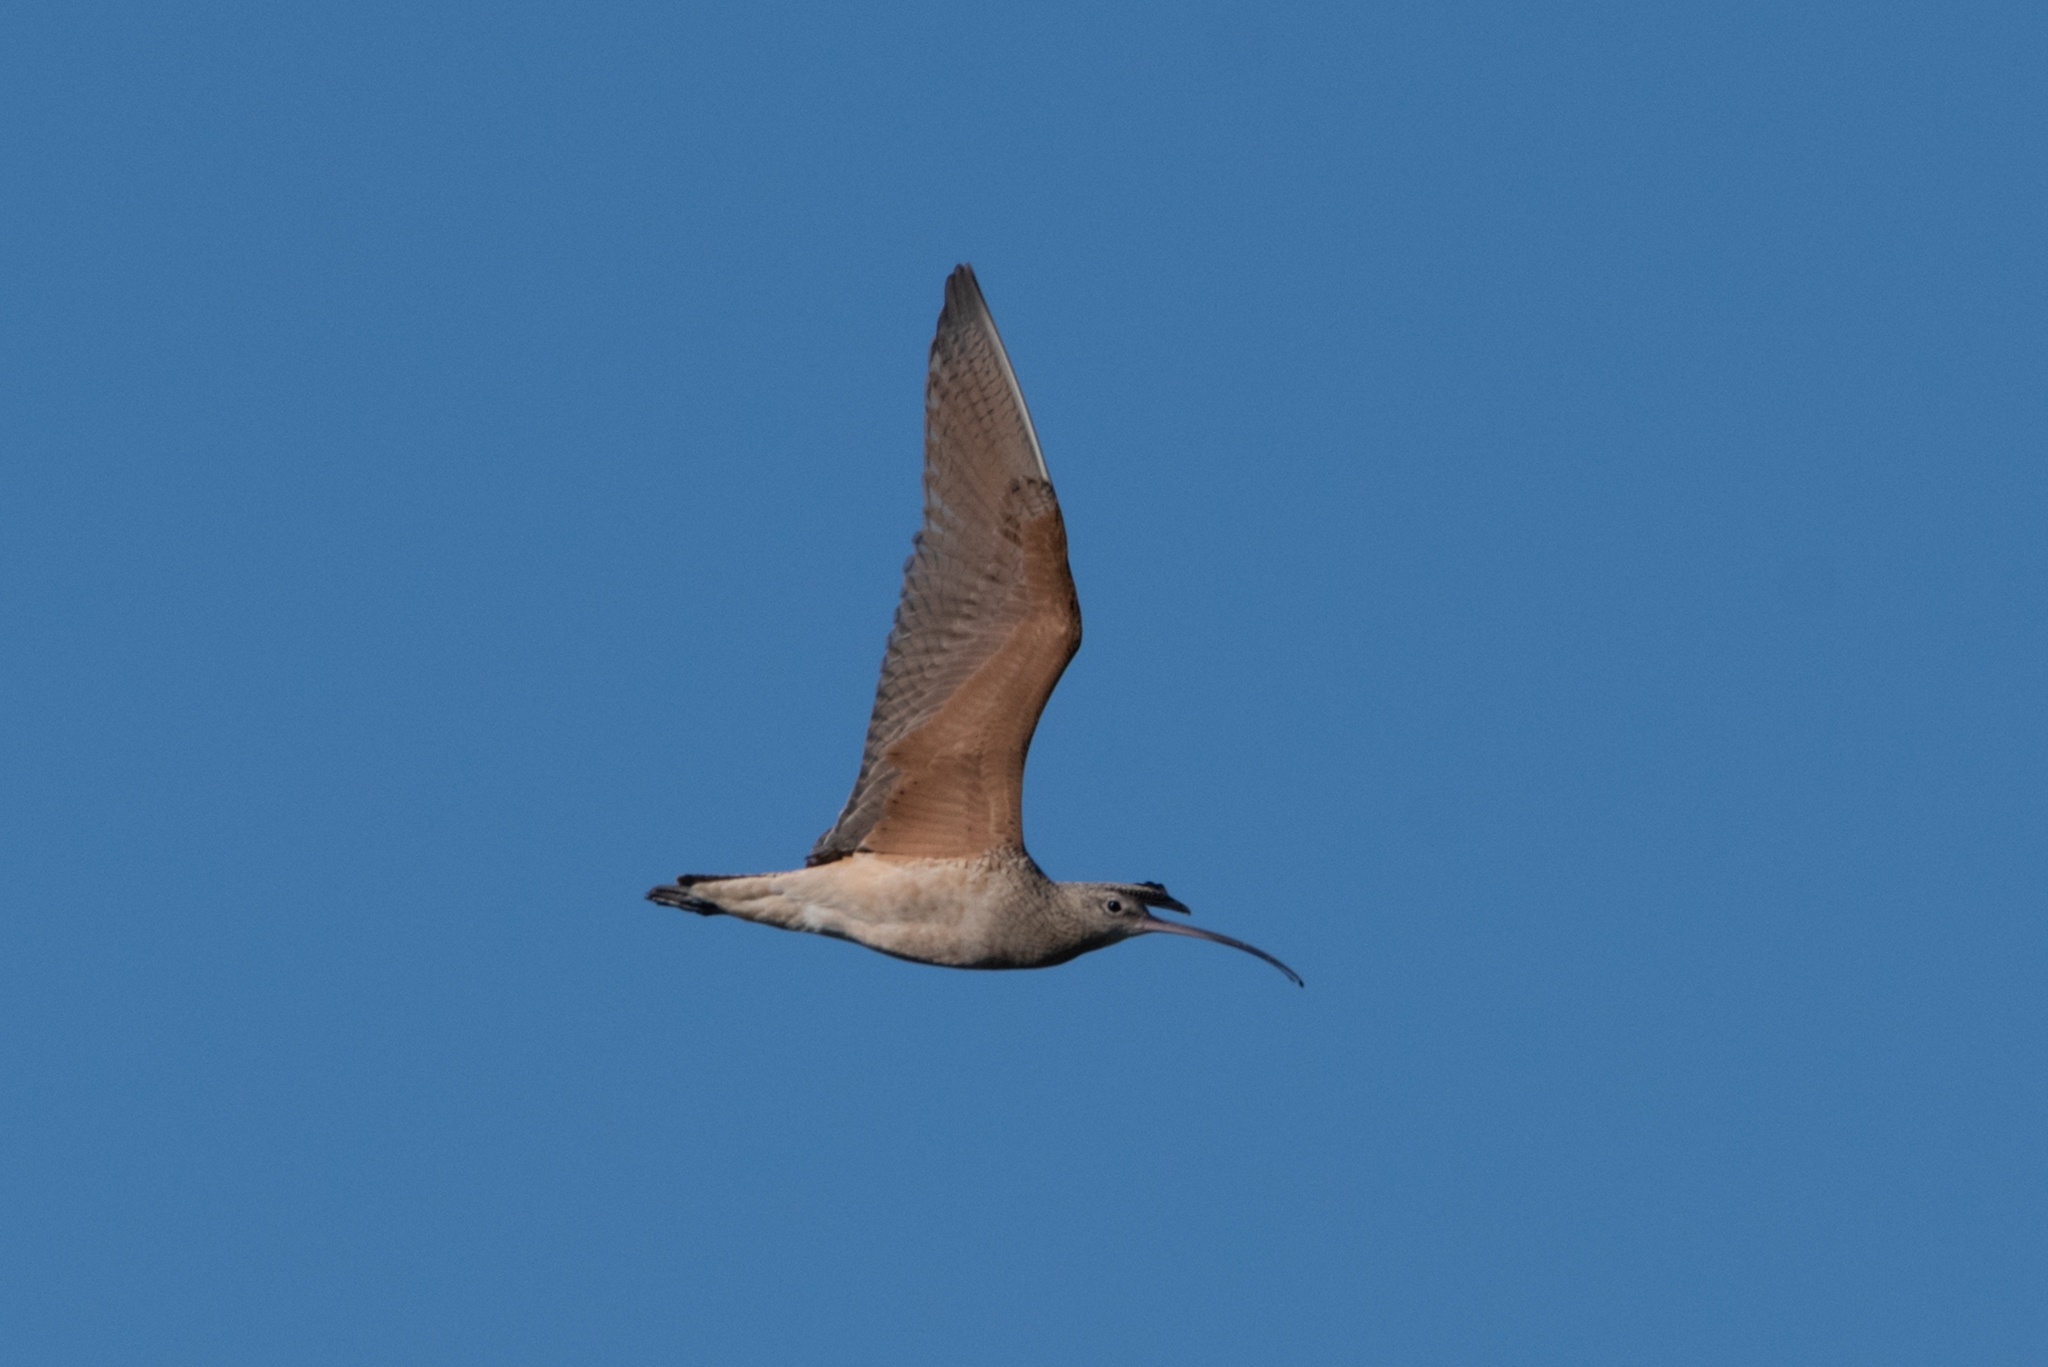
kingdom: Animalia
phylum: Chordata
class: Aves
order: Charadriiformes
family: Scolopacidae
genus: Numenius
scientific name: Numenius americanus
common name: Long-billed curlew
